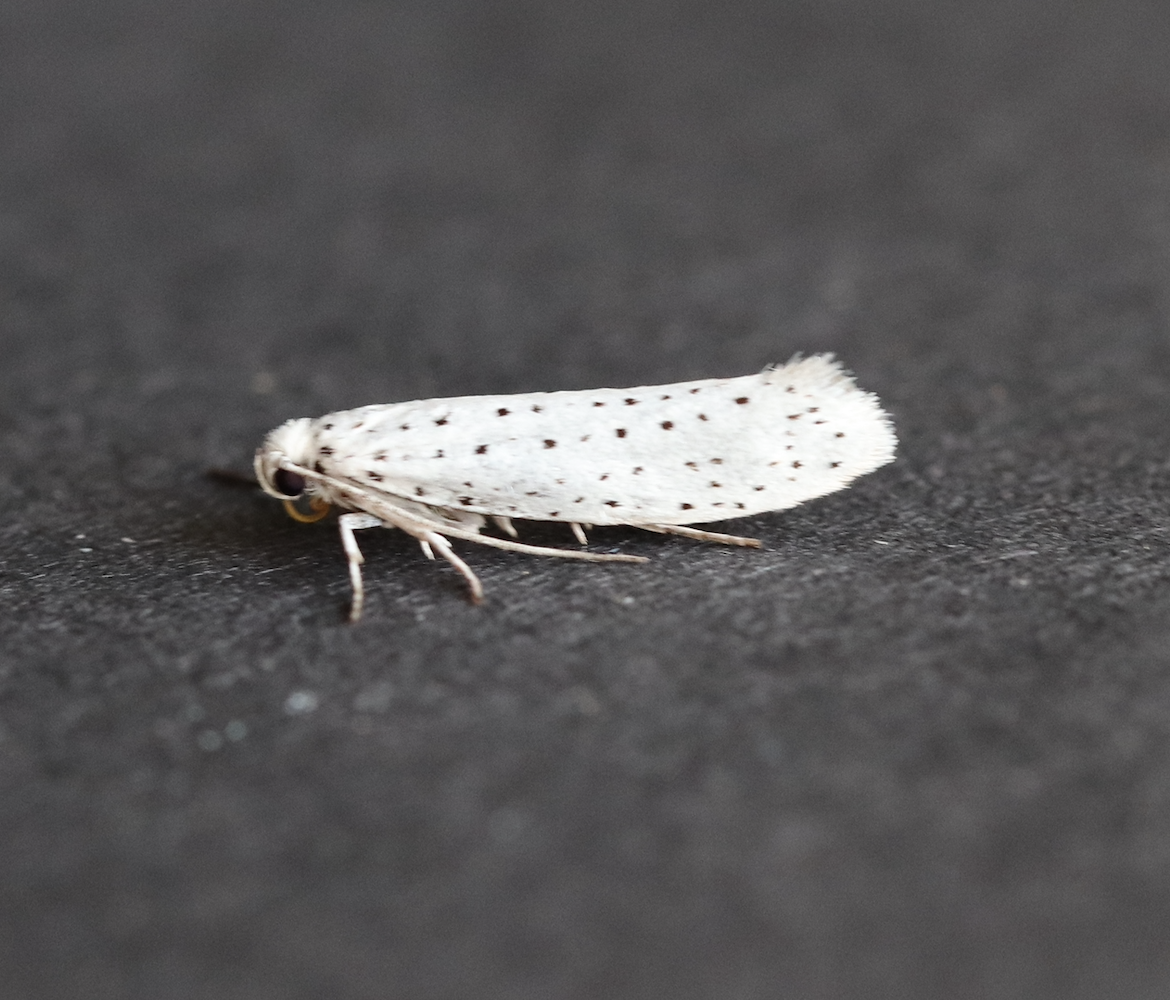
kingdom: Animalia
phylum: Arthropoda
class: Insecta
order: Lepidoptera
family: Yponomeutidae
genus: Yponomeuta
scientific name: Yponomeuta evonymella
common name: Bird-cherry ermine
